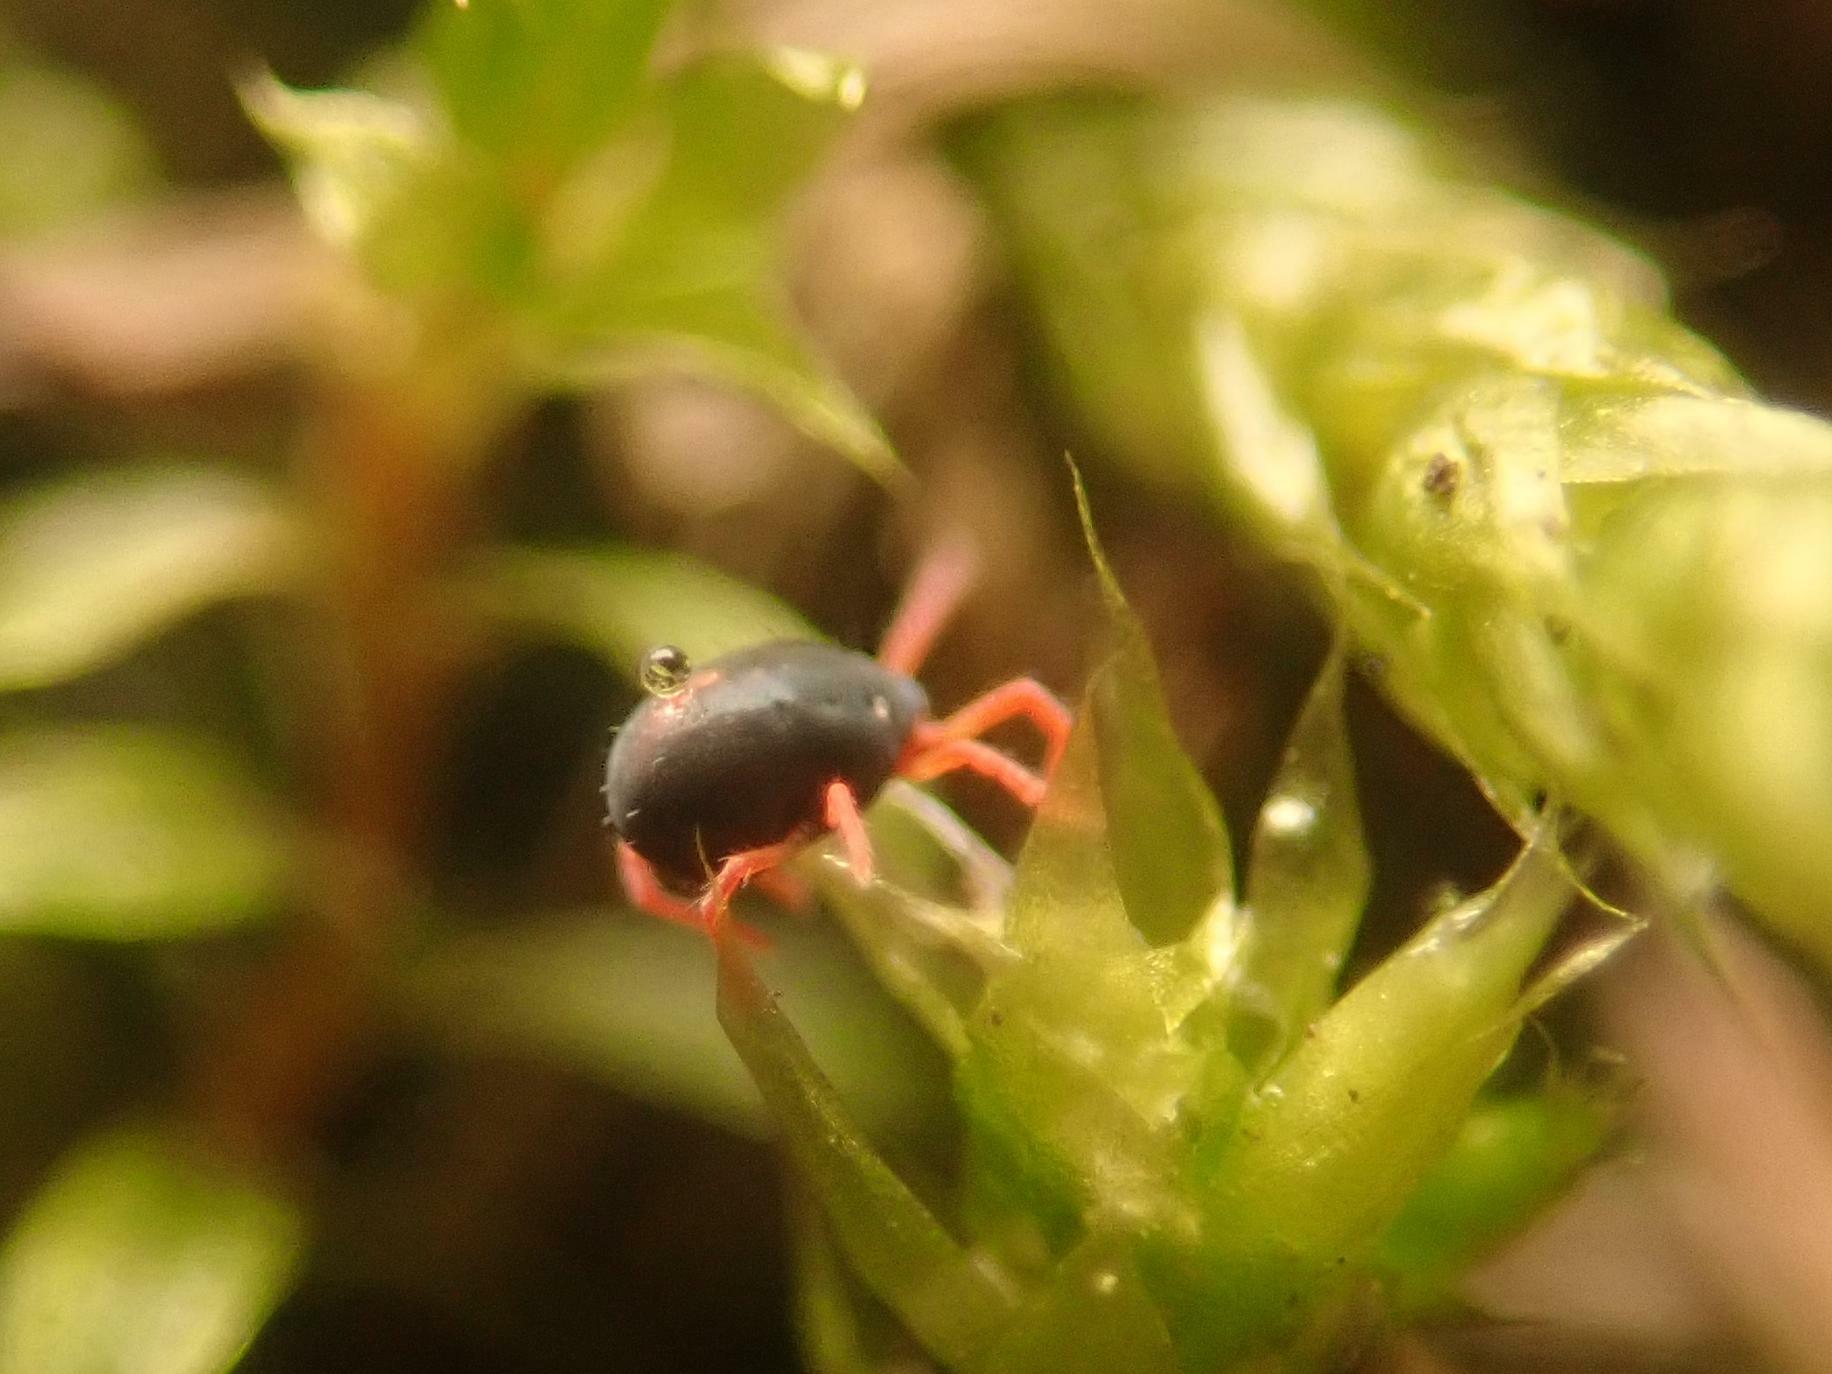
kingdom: Animalia
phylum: Arthropoda
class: Arachnida
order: Trombidiformes
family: Penthaleidae
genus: Penthaleus
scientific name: Penthaleus major
